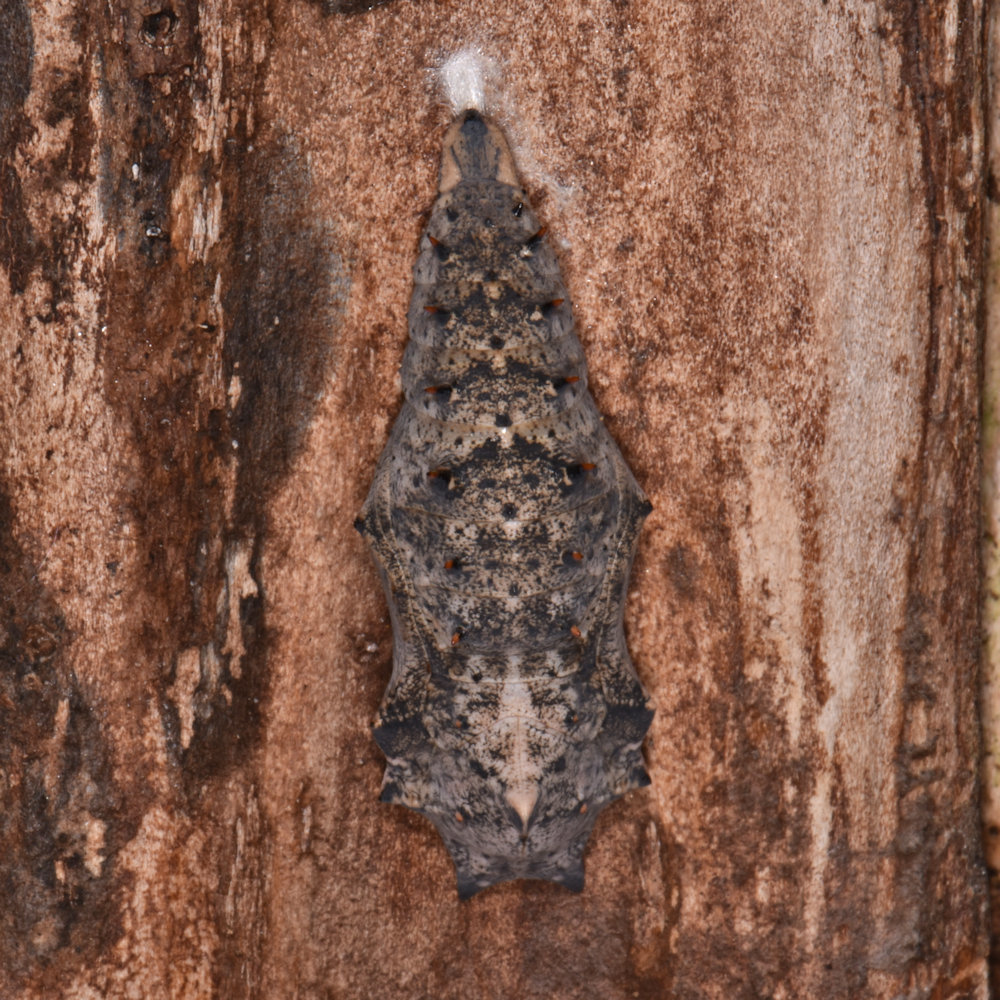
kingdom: Animalia
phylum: Arthropoda
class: Insecta
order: Lepidoptera
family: Nymphalidae
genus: Nymphalis
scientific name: Nymphalis antiopa
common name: Camberwell beauty
